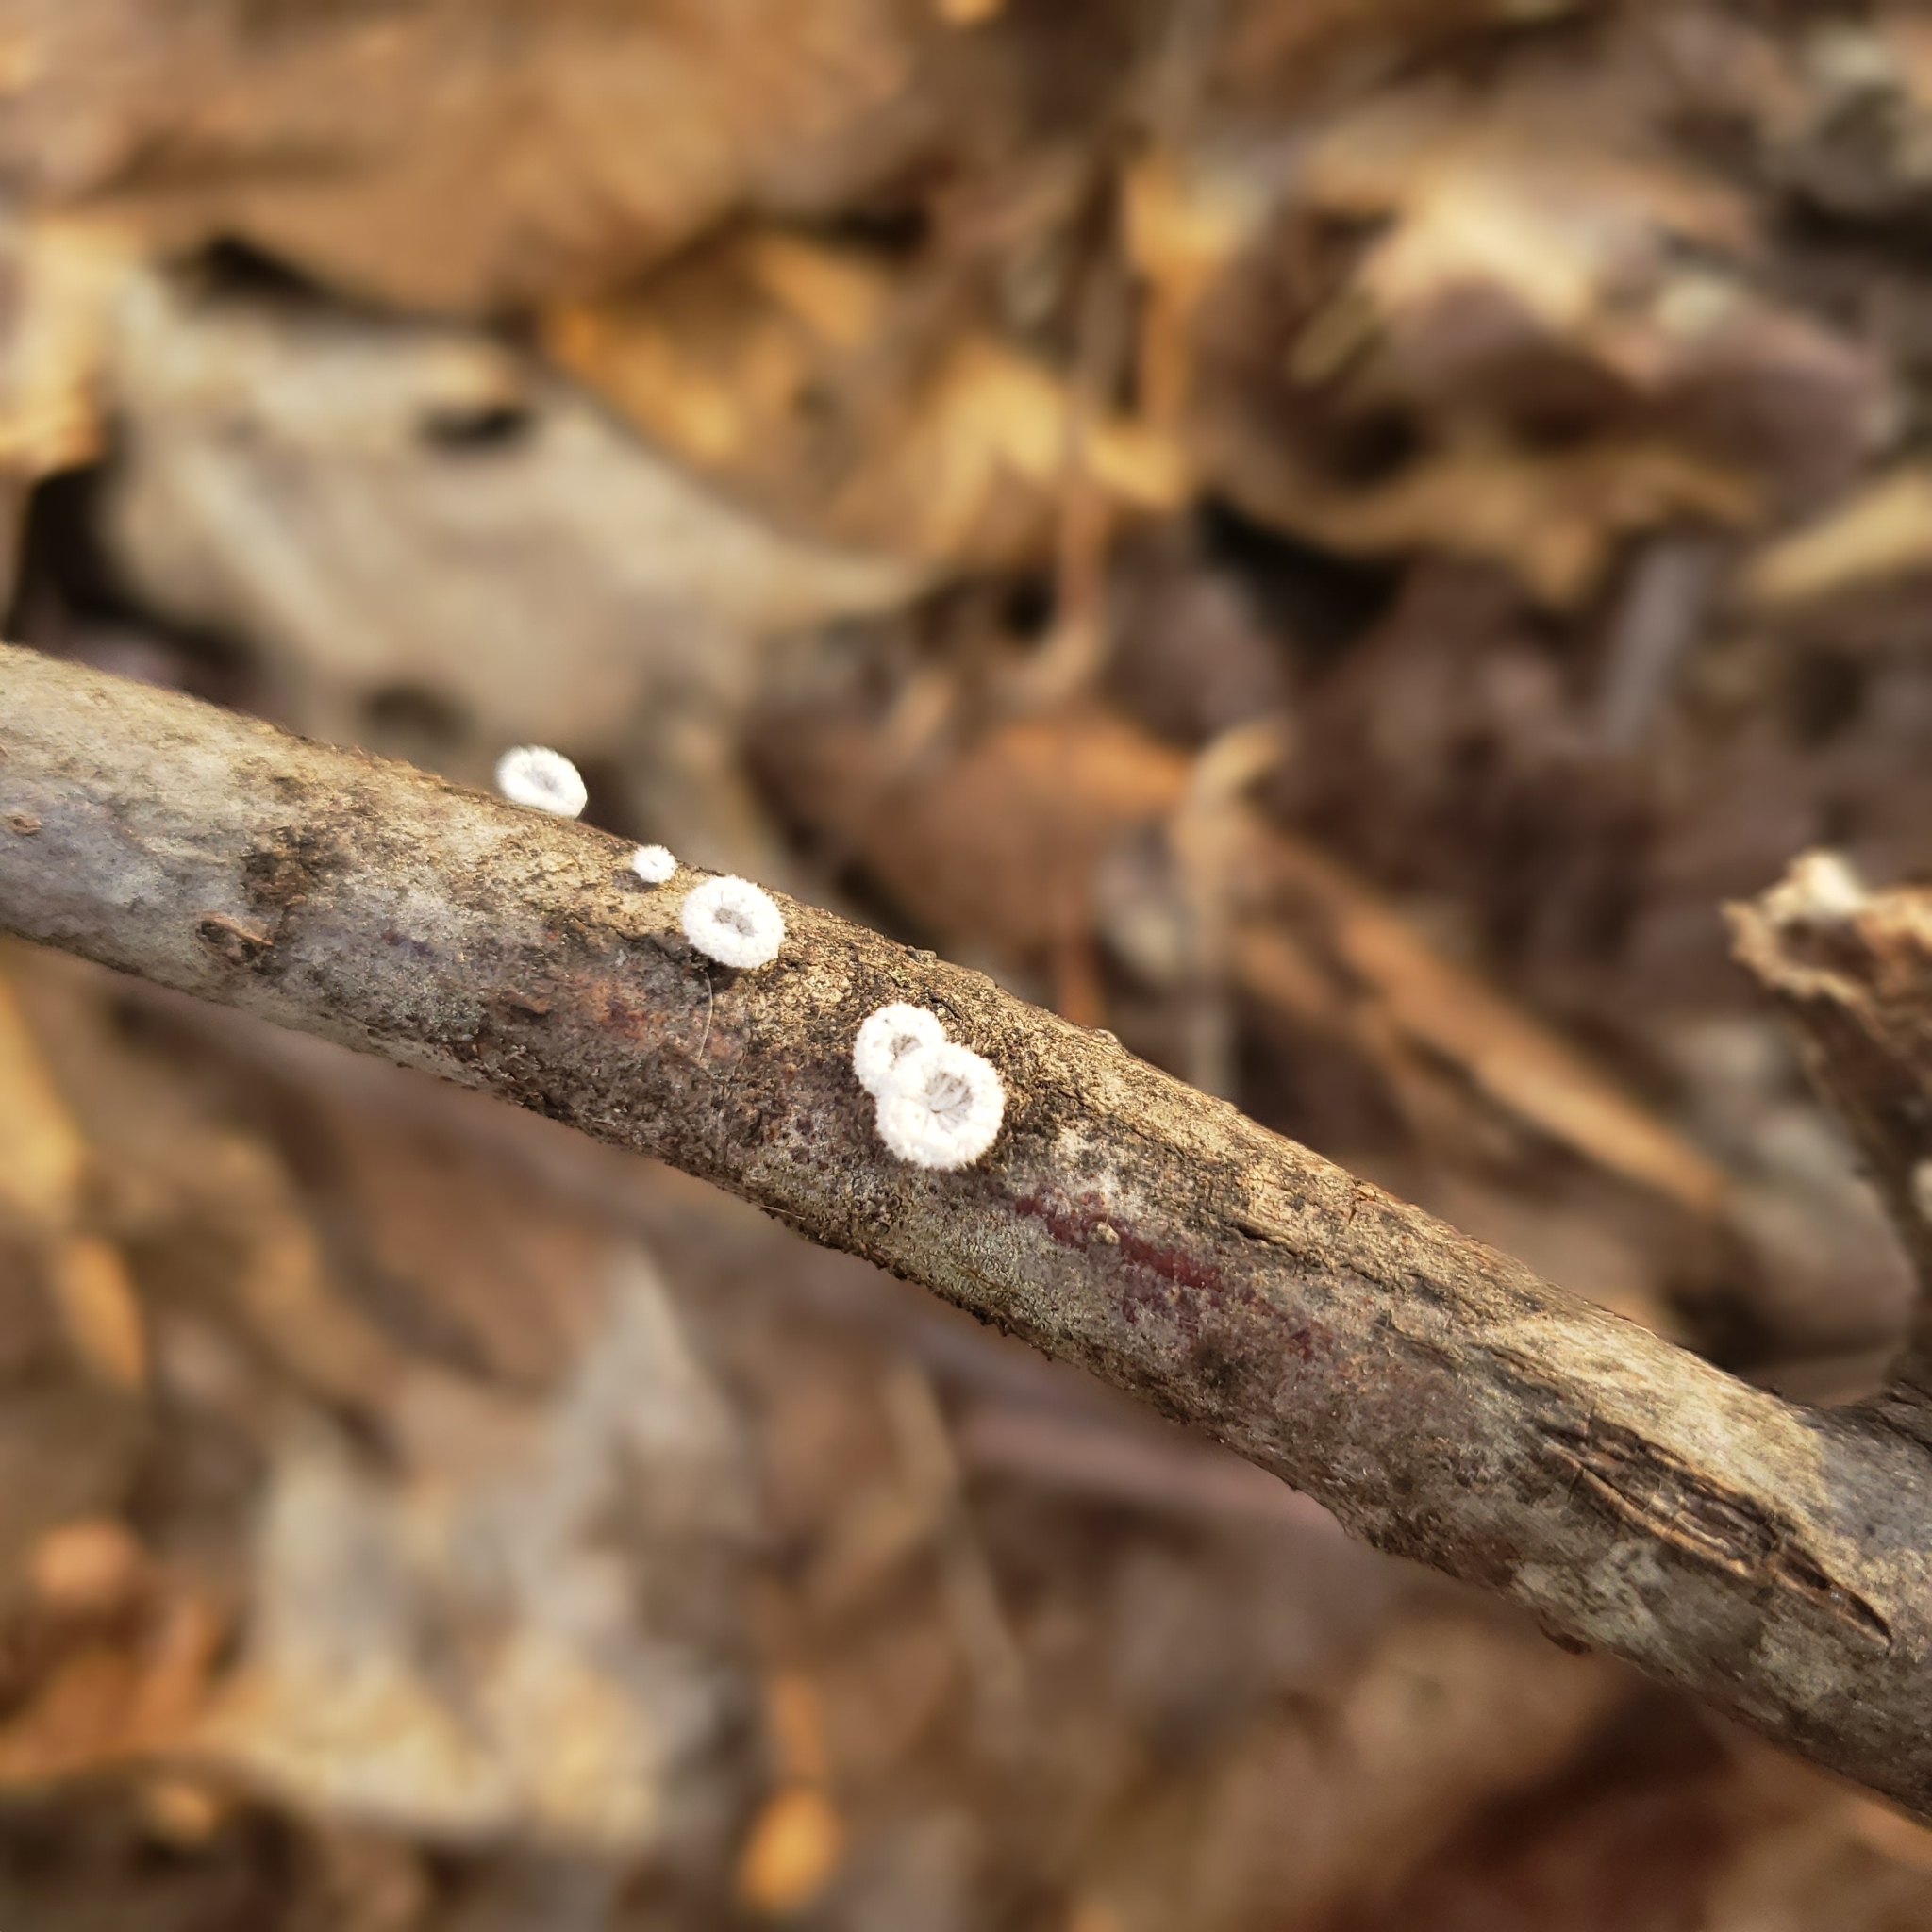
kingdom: Fungi
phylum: Basidiomycota
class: Agaricomycetes
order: Agaricales
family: Schizophyllaceae
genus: Schizophyllum
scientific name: Schizophyllum commune
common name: Common porecrust
